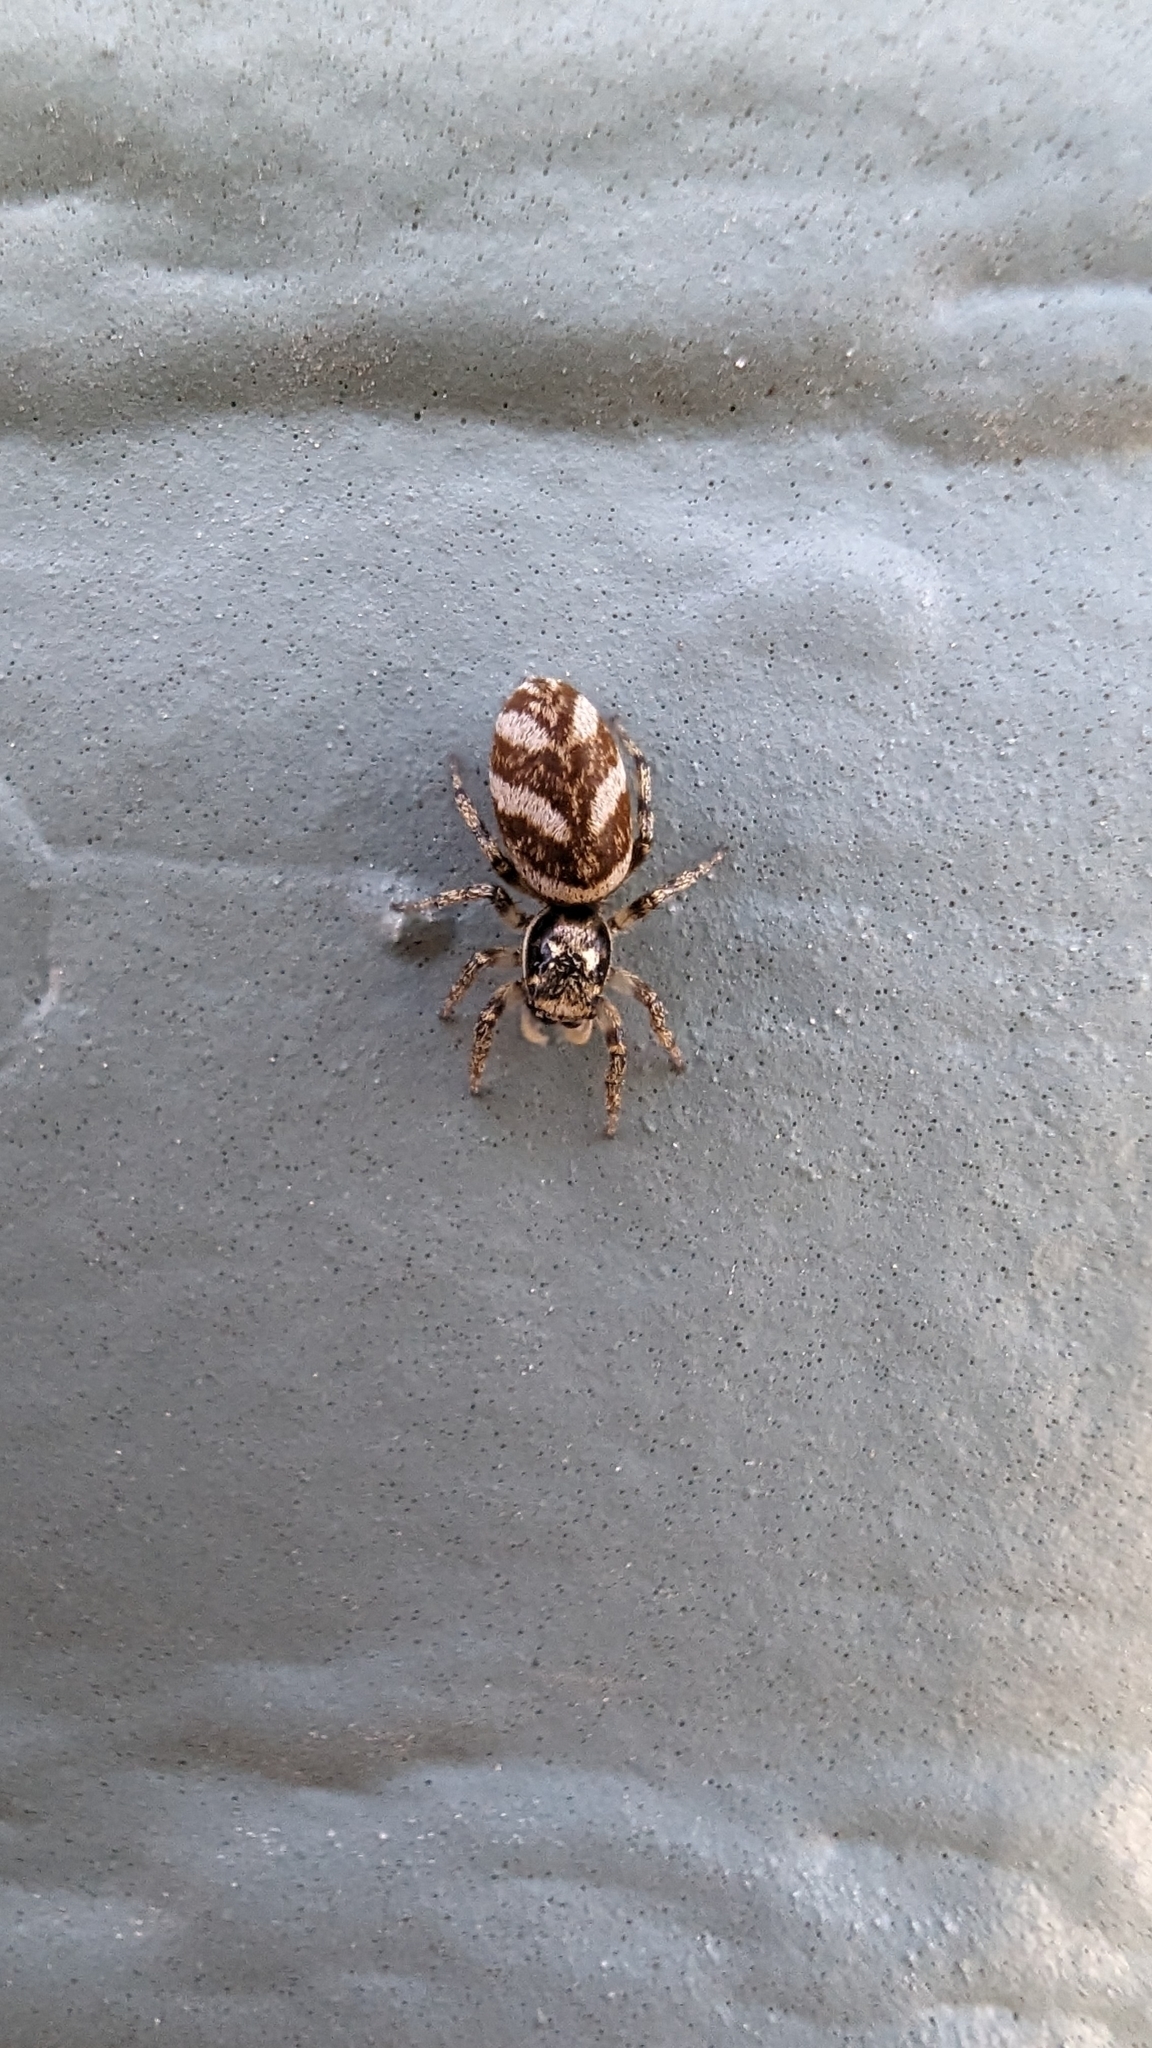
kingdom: Animalia
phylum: Arthropoda
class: Arachnida
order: Araneae
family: Salticidae
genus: Salticus
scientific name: Salticus scenicus
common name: Zebra jumper
